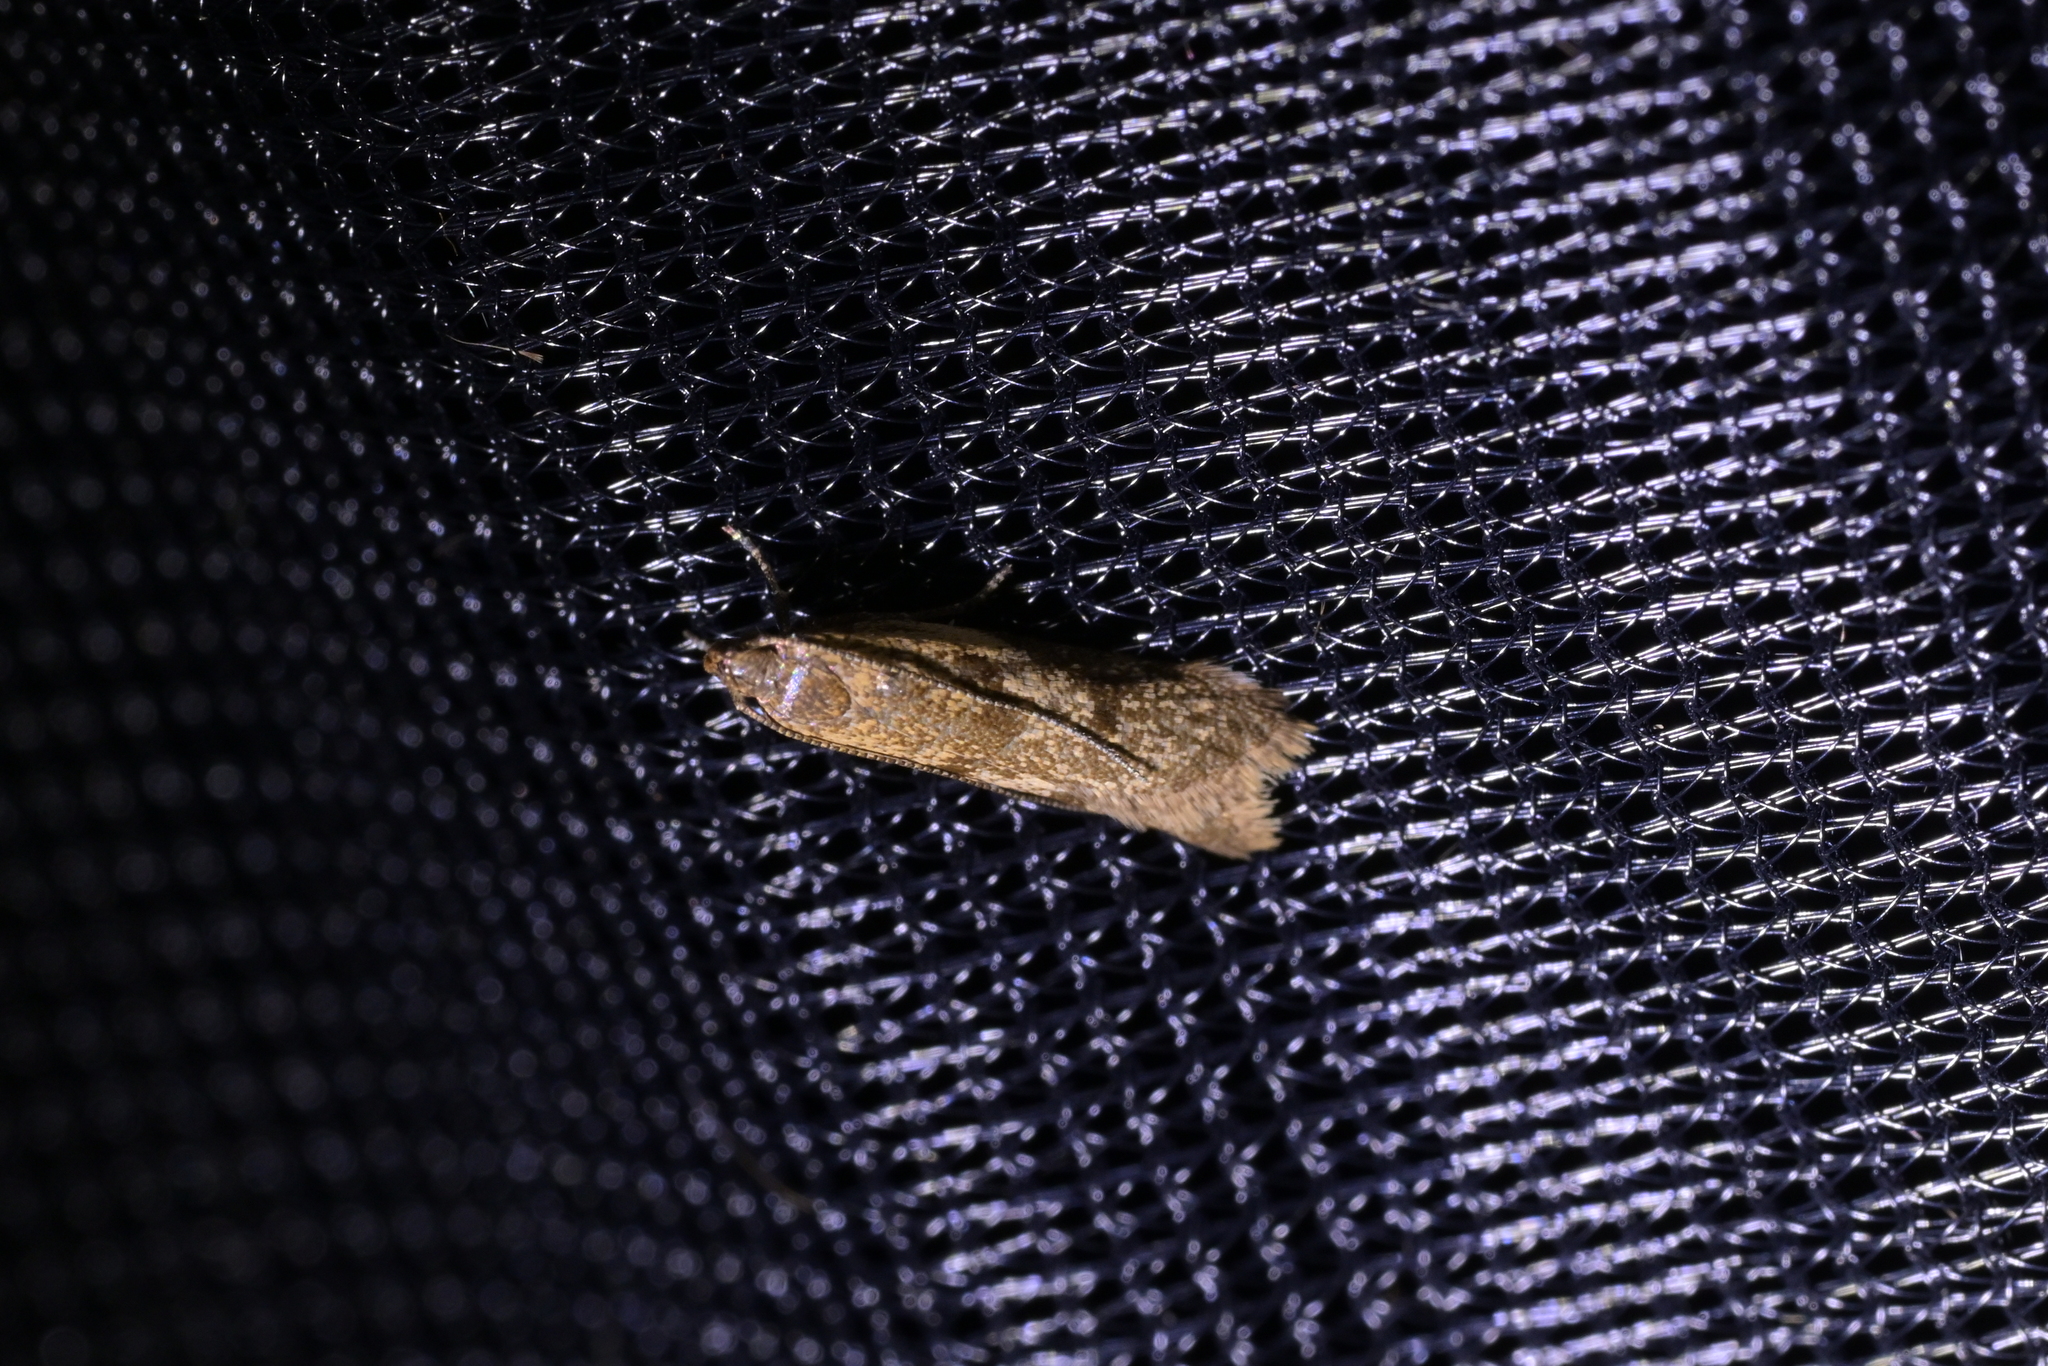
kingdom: Animalia
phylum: Arthropoda
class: Insecta
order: Lepidoptera
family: Oecophoridae
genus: Gymnobathra
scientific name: Gymnobathra tholodella
